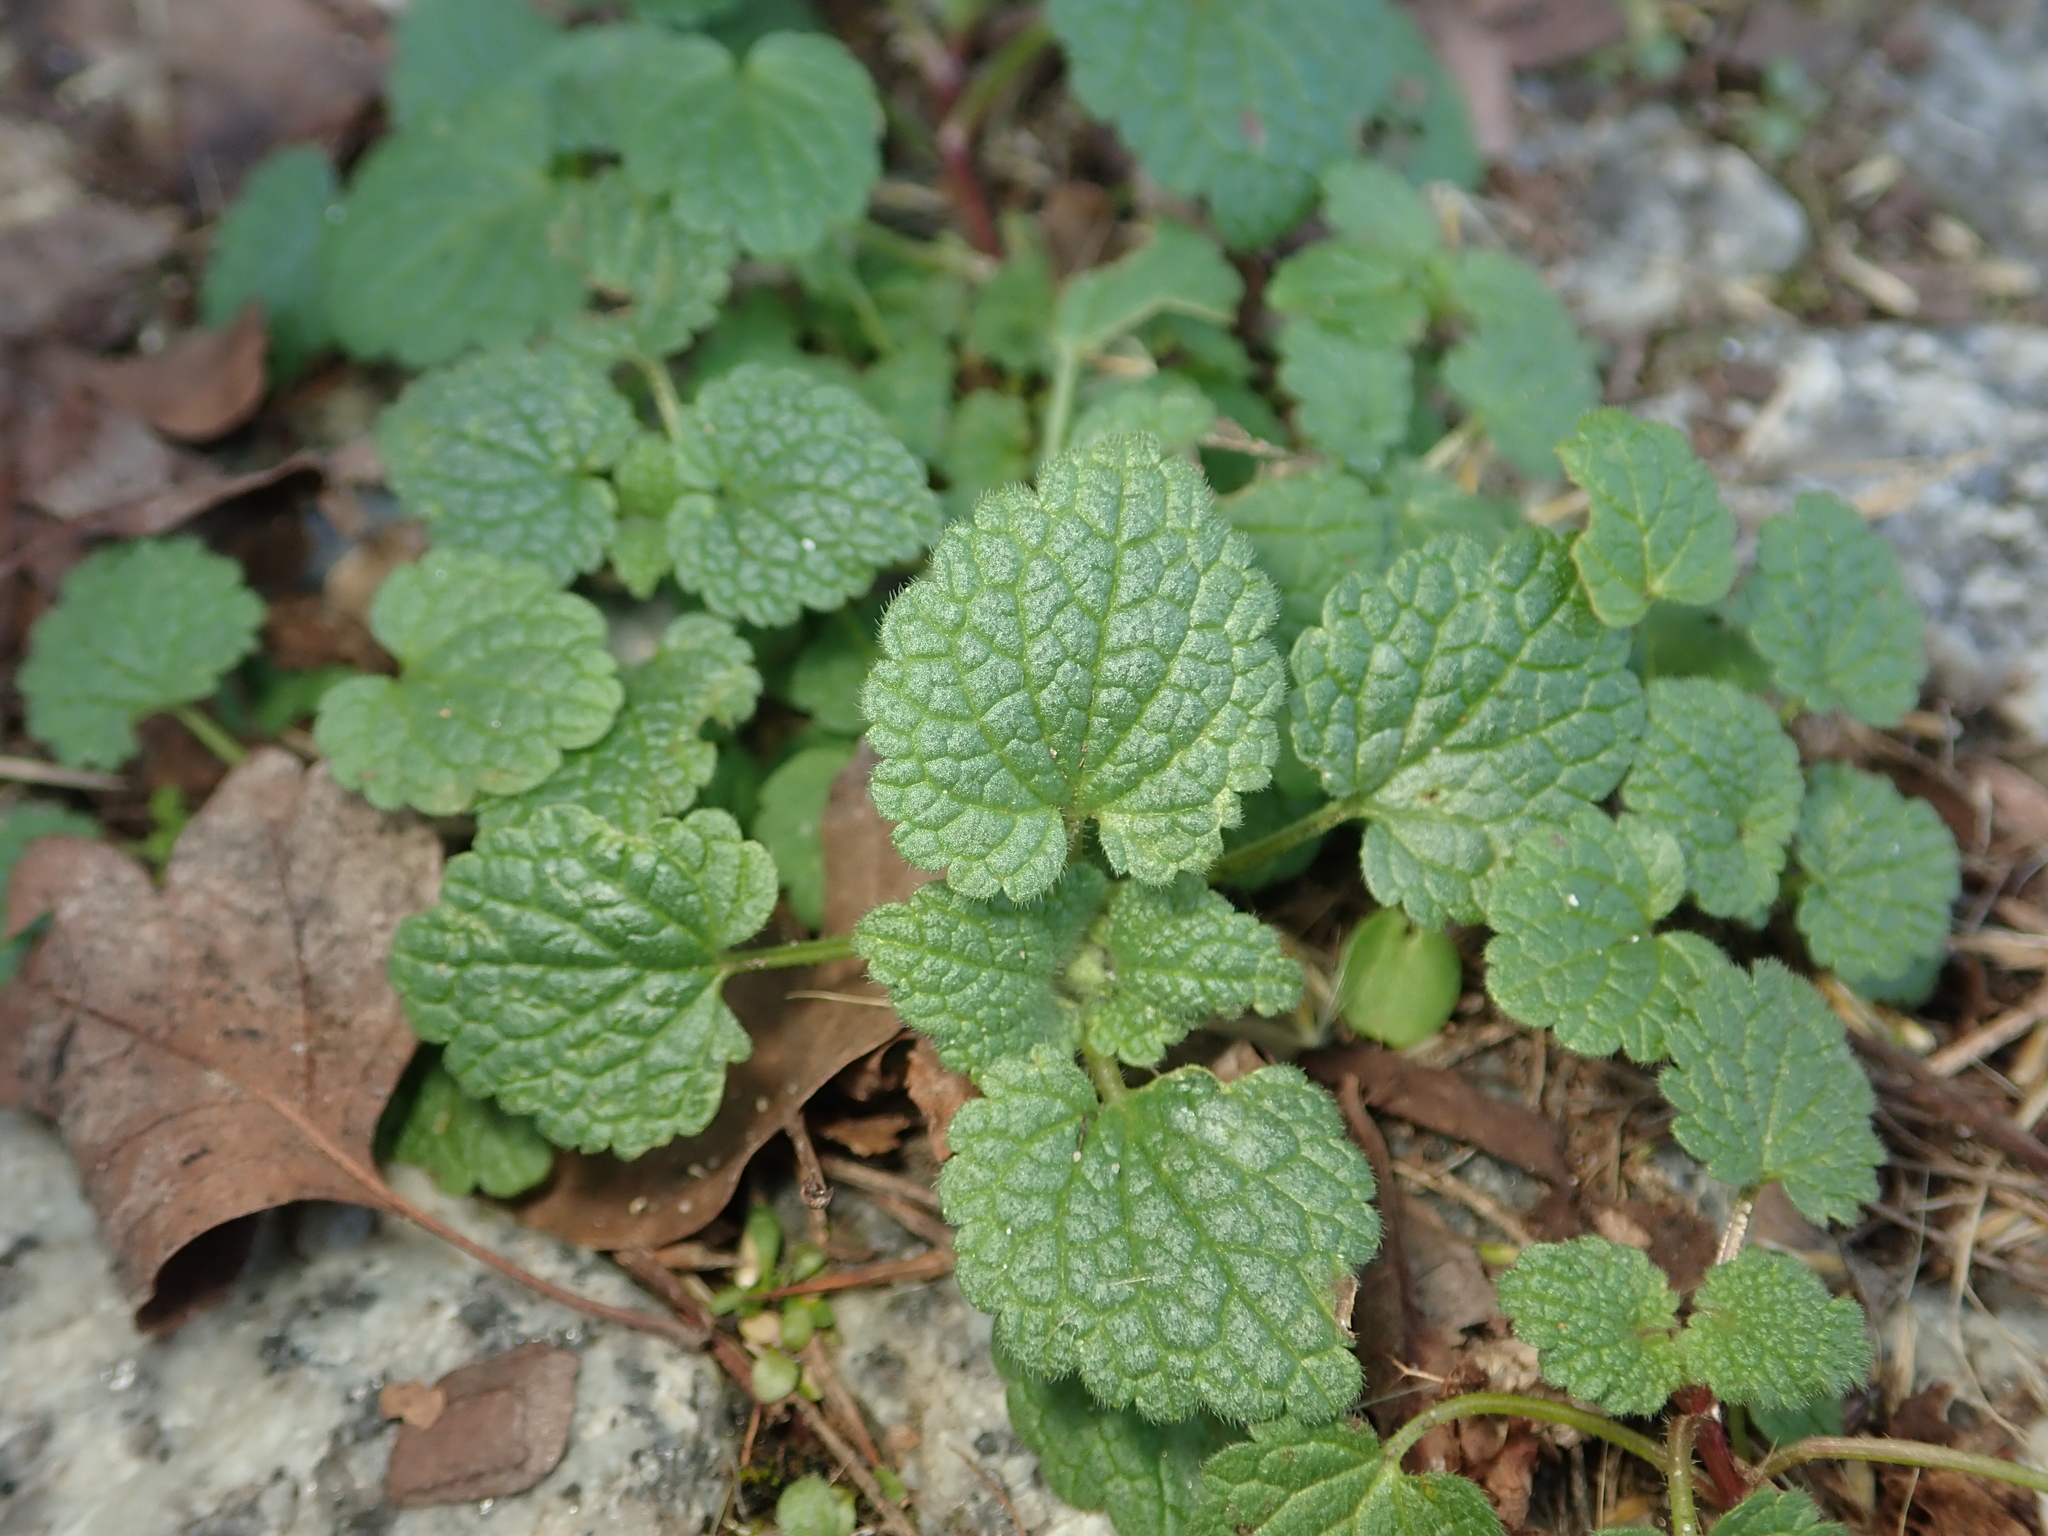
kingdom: Plantae
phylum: Tracheophyta
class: Magnoliopsida
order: Lamiales
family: Lamiaceae
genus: Lamium
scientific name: Lamium purpureum
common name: Red dead-nettle
